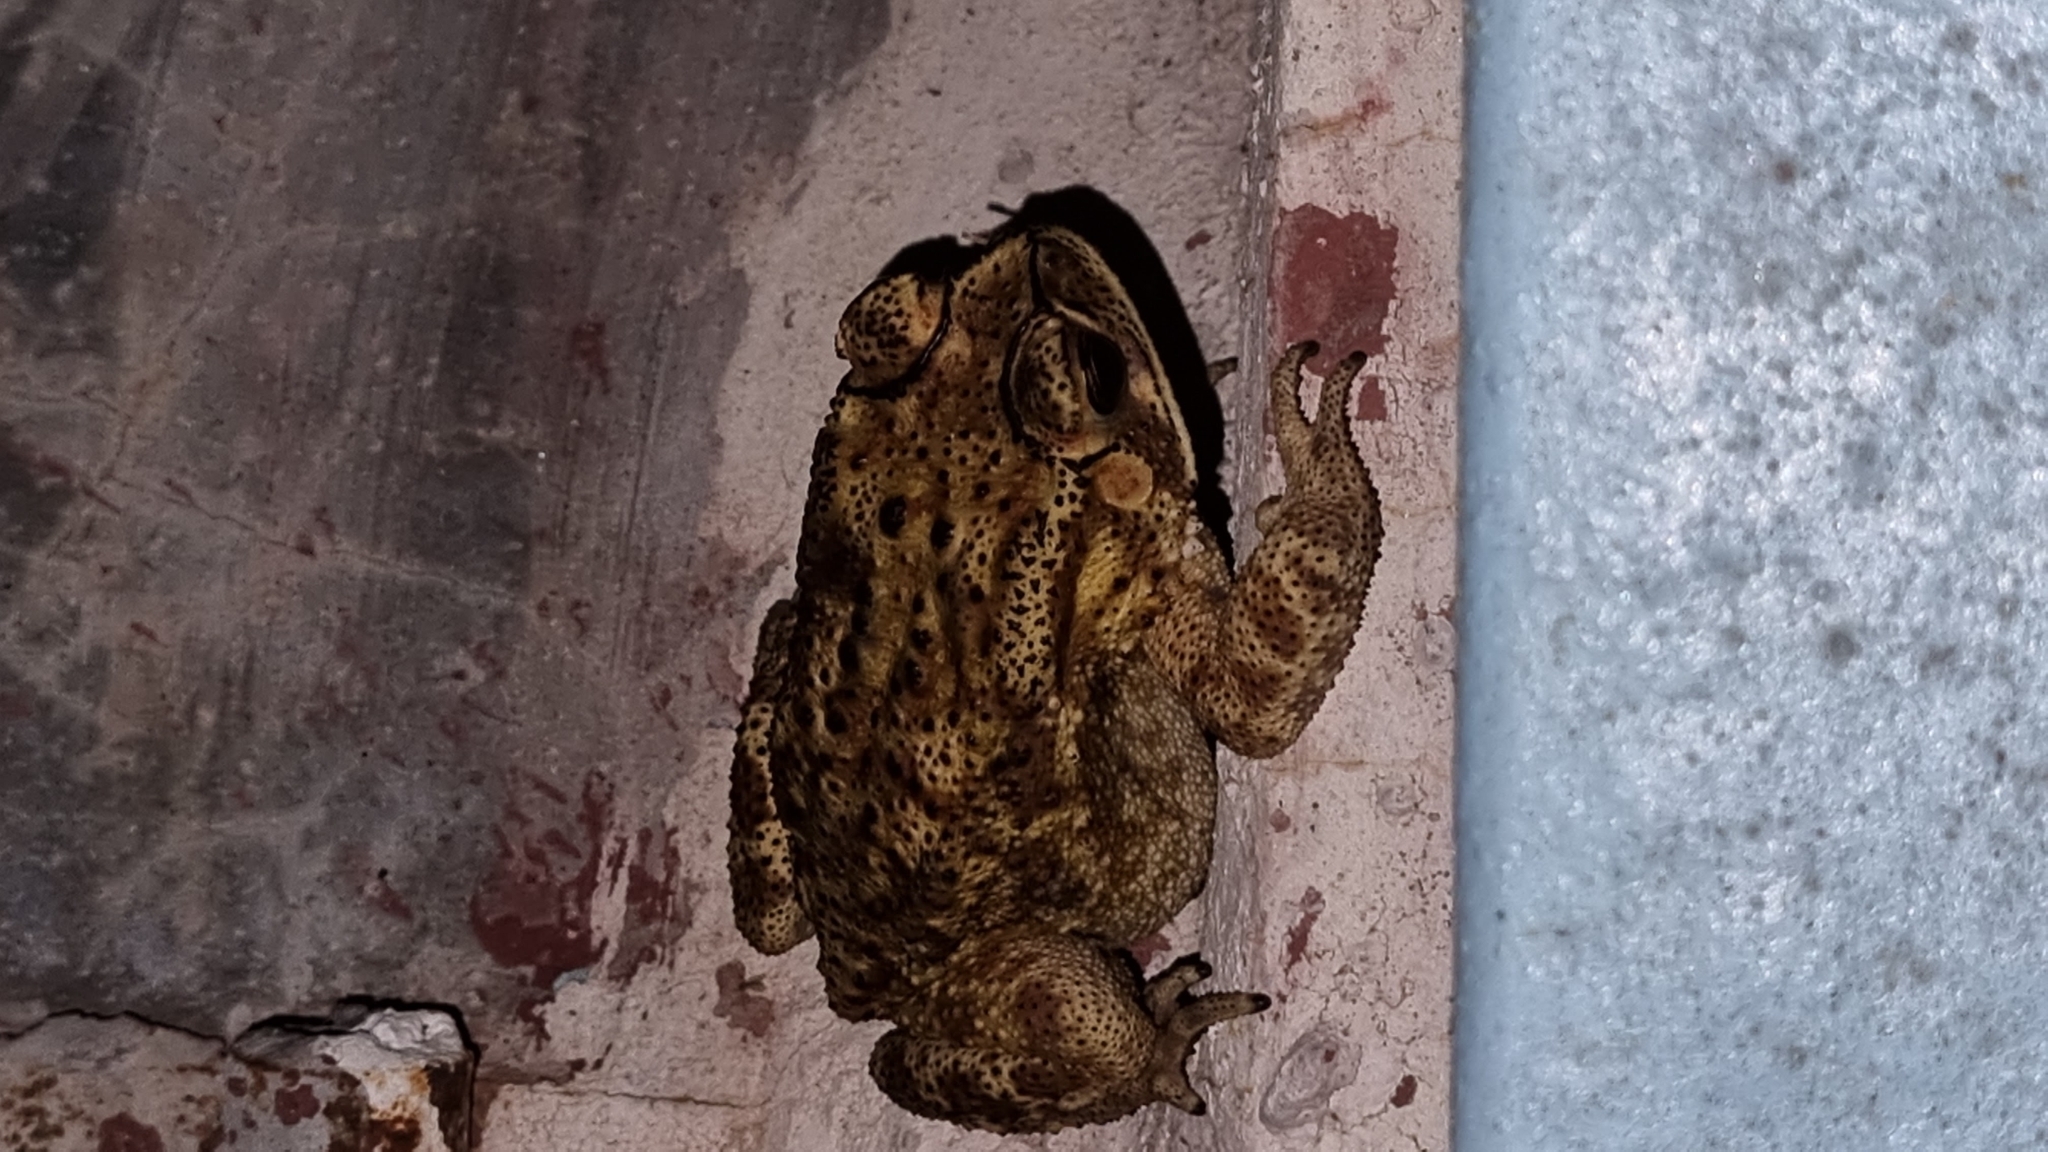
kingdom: Animalia
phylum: Chordata
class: Amphibia
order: Anura
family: Bufonidae
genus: Duttaphrynus
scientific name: Duttaphrynus melanostictus
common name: Common sunda toad
